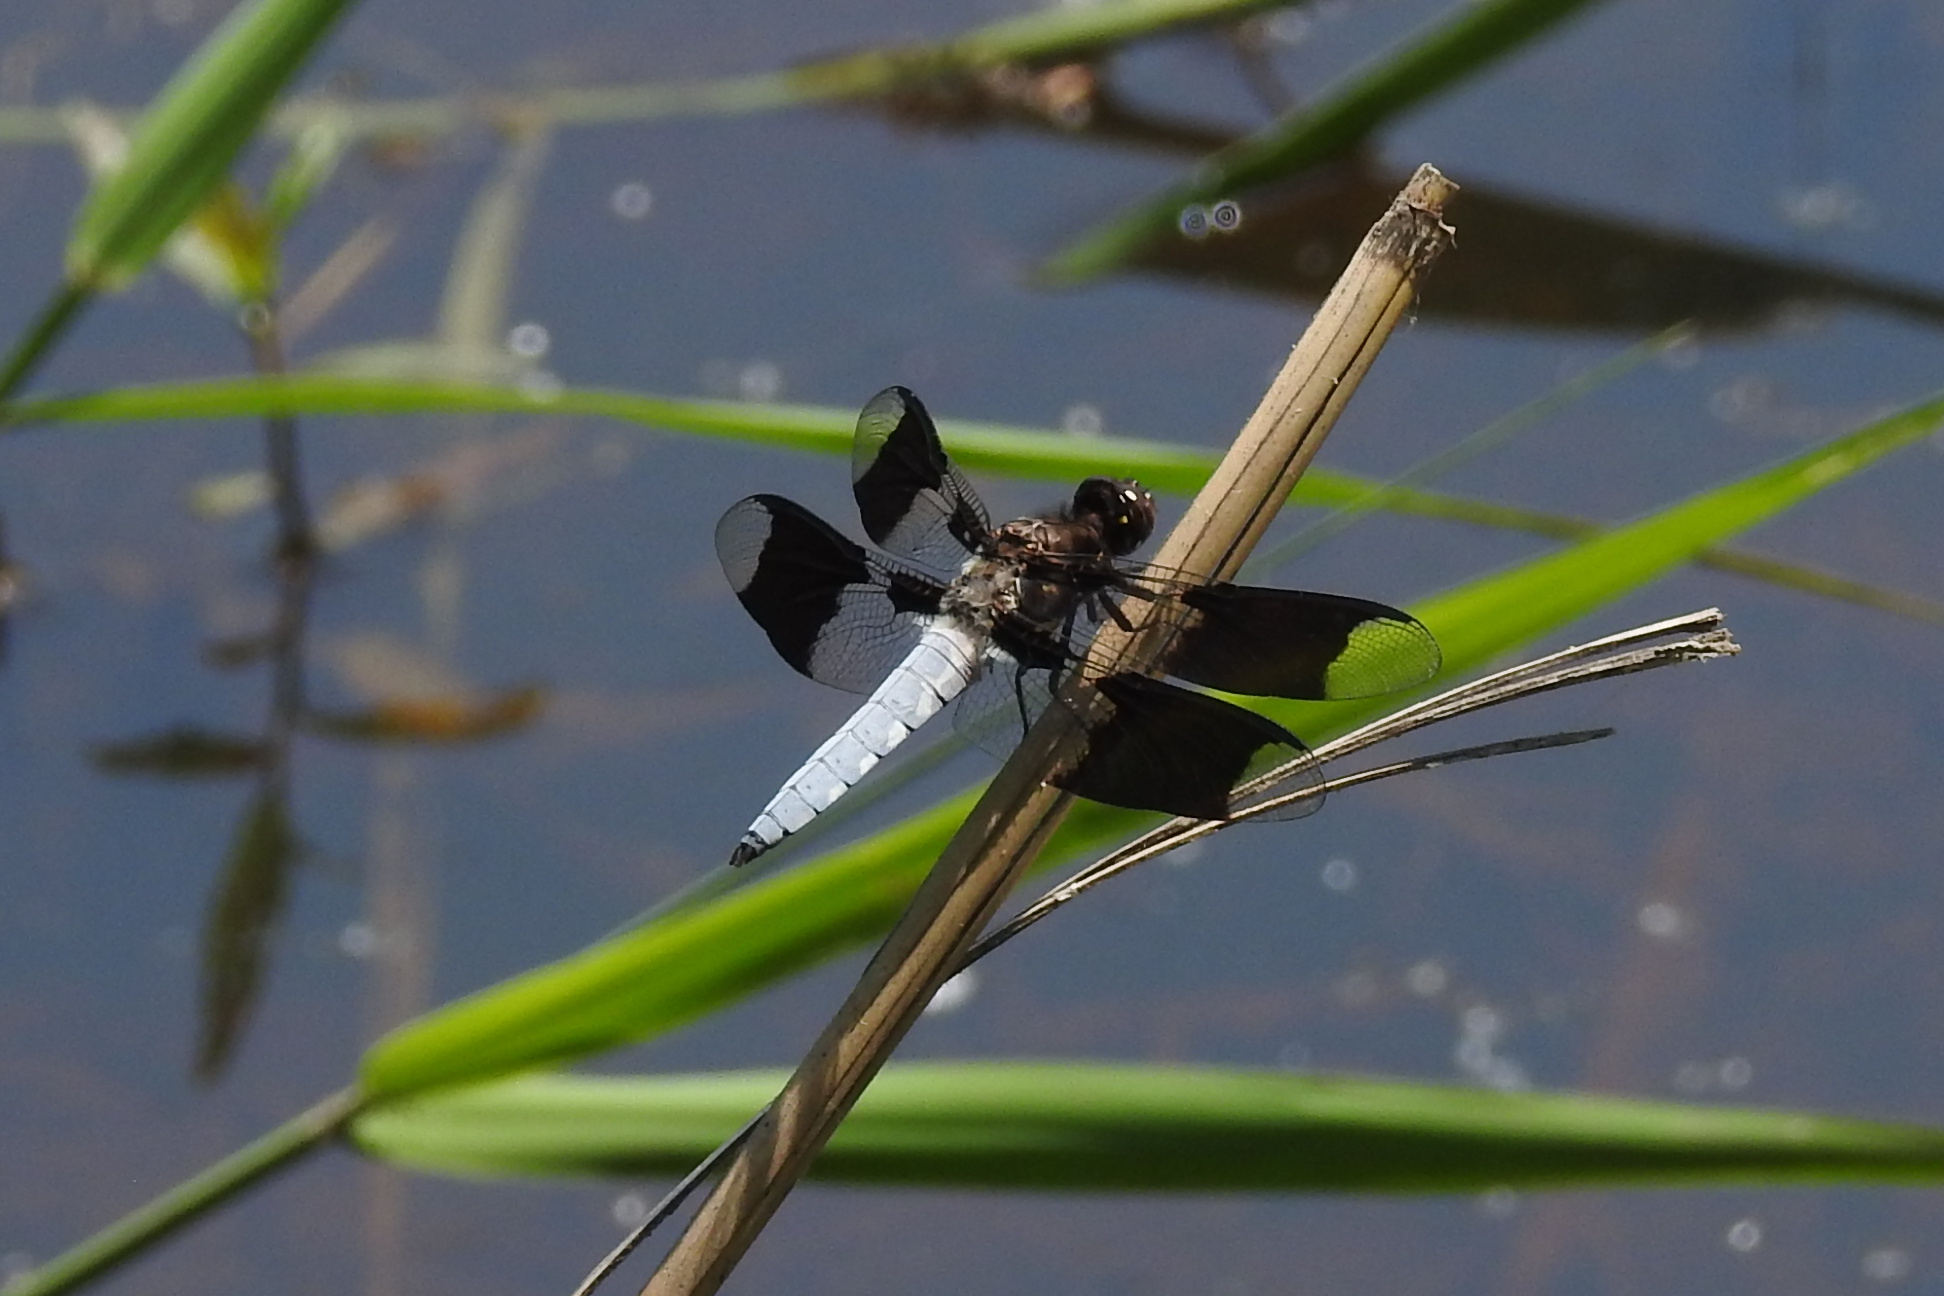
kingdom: Animalia
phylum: Arthropoda
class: Insecta
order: Odonata
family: Libellulidae
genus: Plathemis
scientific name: Plathemis lydia
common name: Common whitetail
